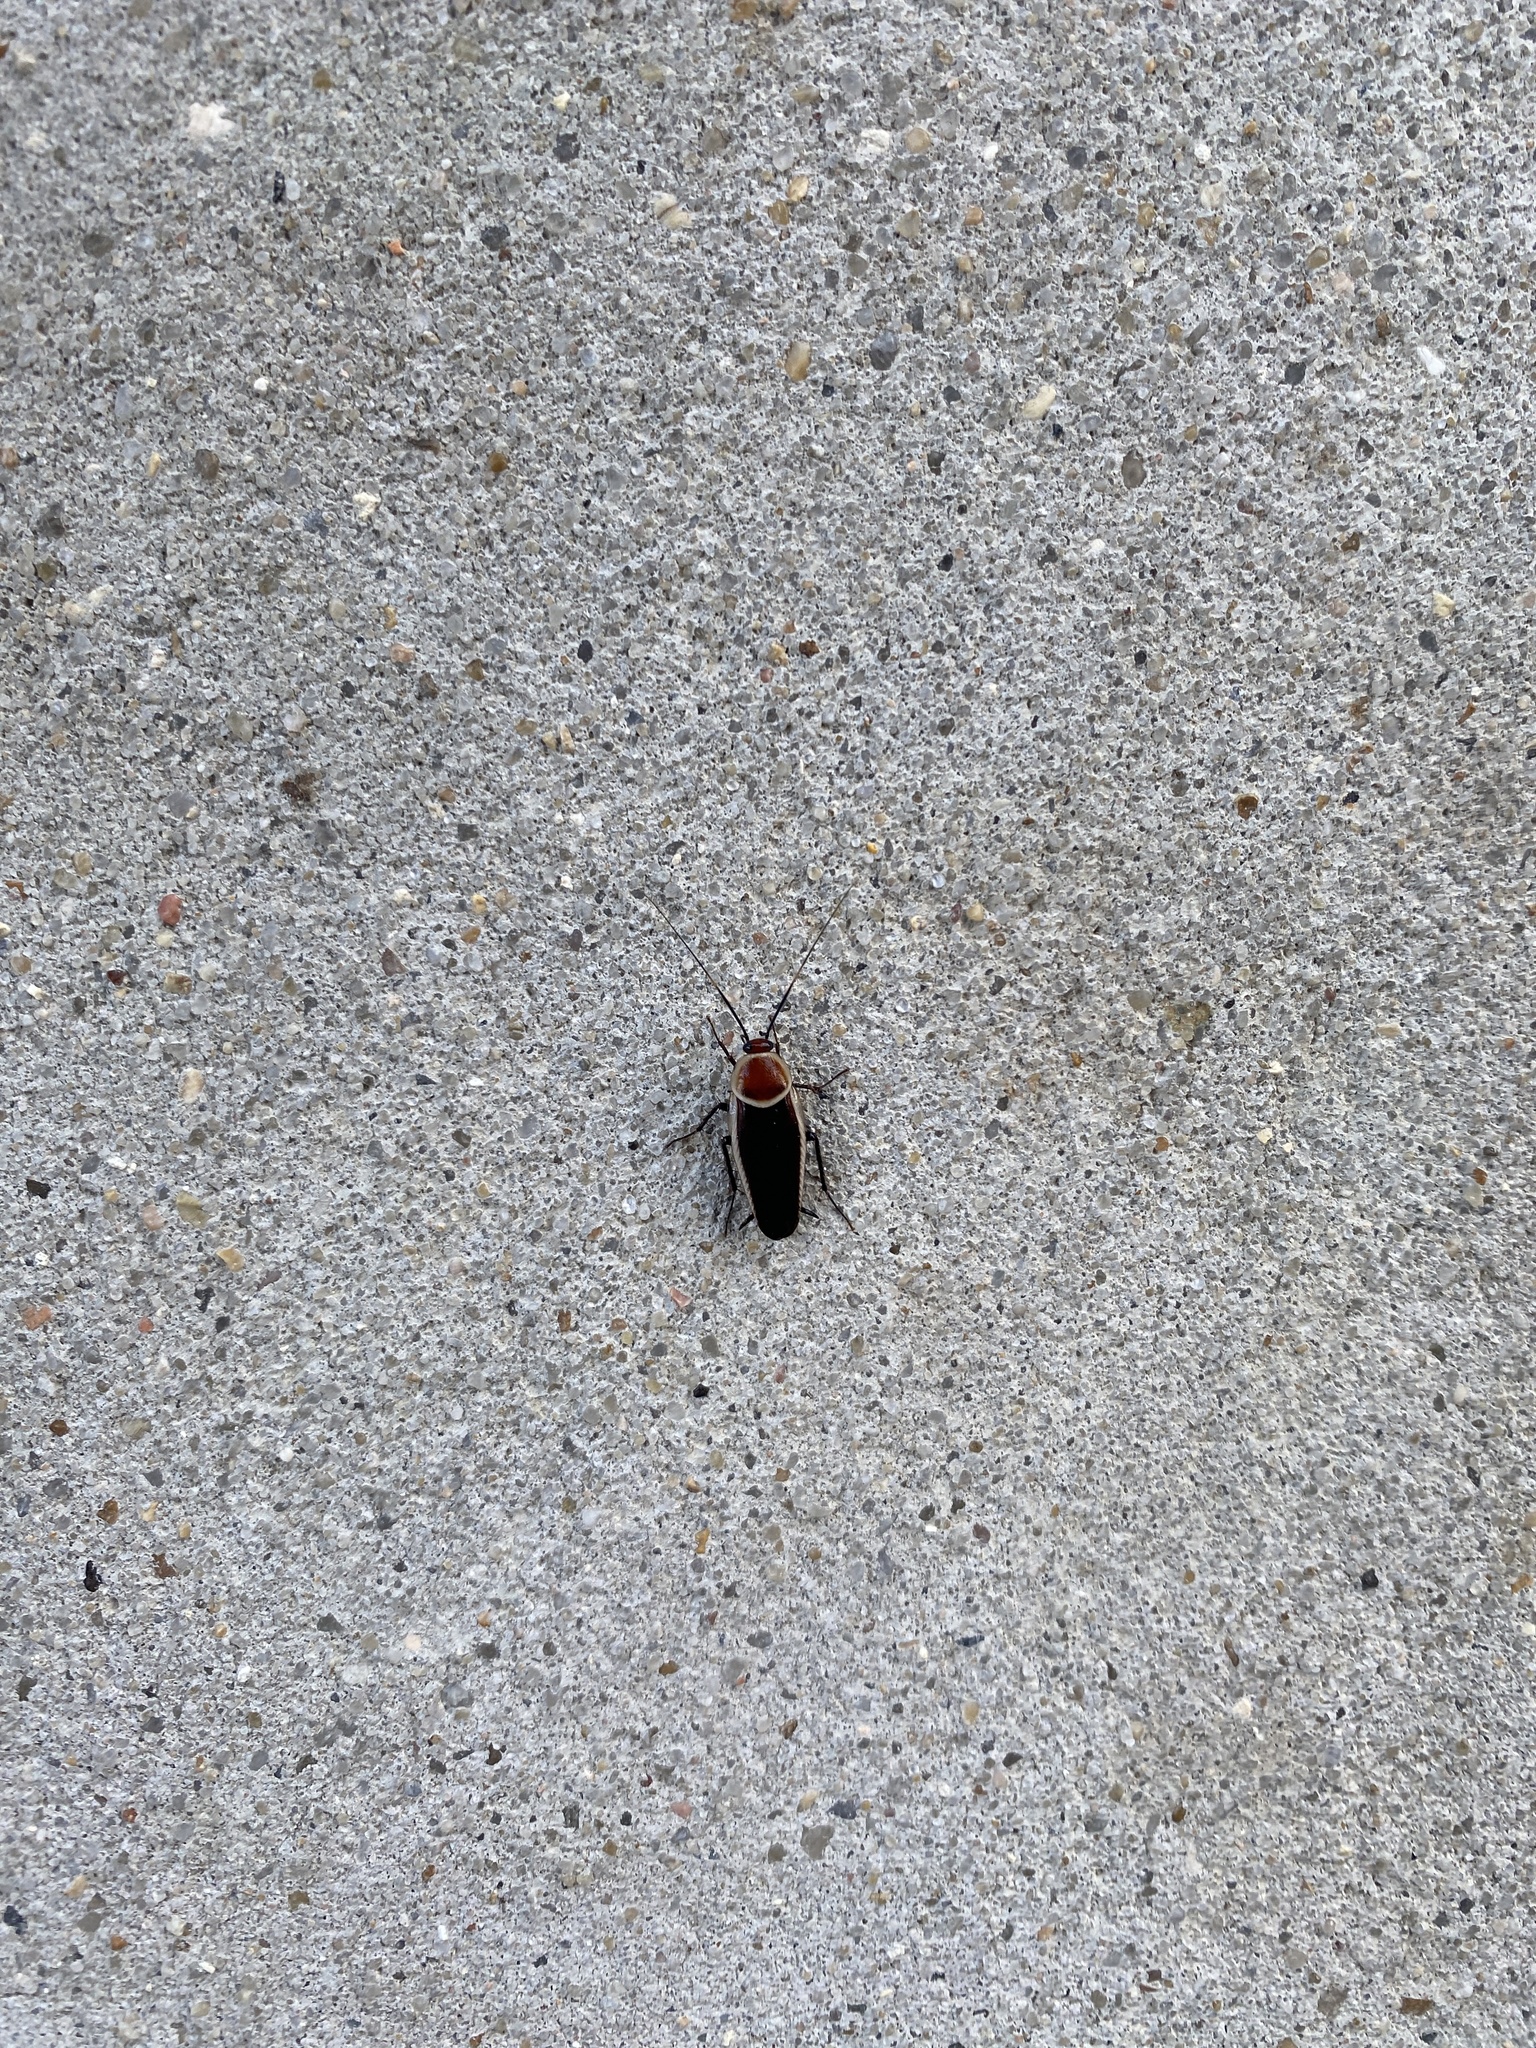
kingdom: Animalia
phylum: Arthropoda
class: Insecta
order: Blattodea
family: Ectobiidae
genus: Pseudomops
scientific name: Pseudomops septentrionalis
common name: Pale-bordered field cockroach
